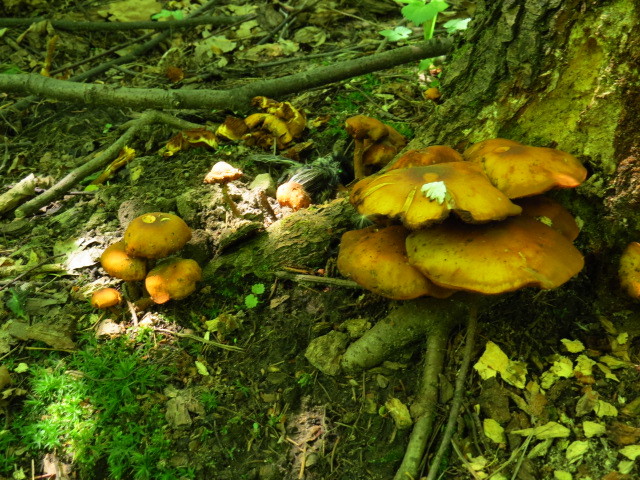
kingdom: Fungi
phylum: Basidiomycota
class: Agaricomycetes
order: Agaricales
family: Strophariaceae
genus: Kuehneromyces
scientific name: Kuehneromyces mutabilis
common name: Sheathed woodtuft
